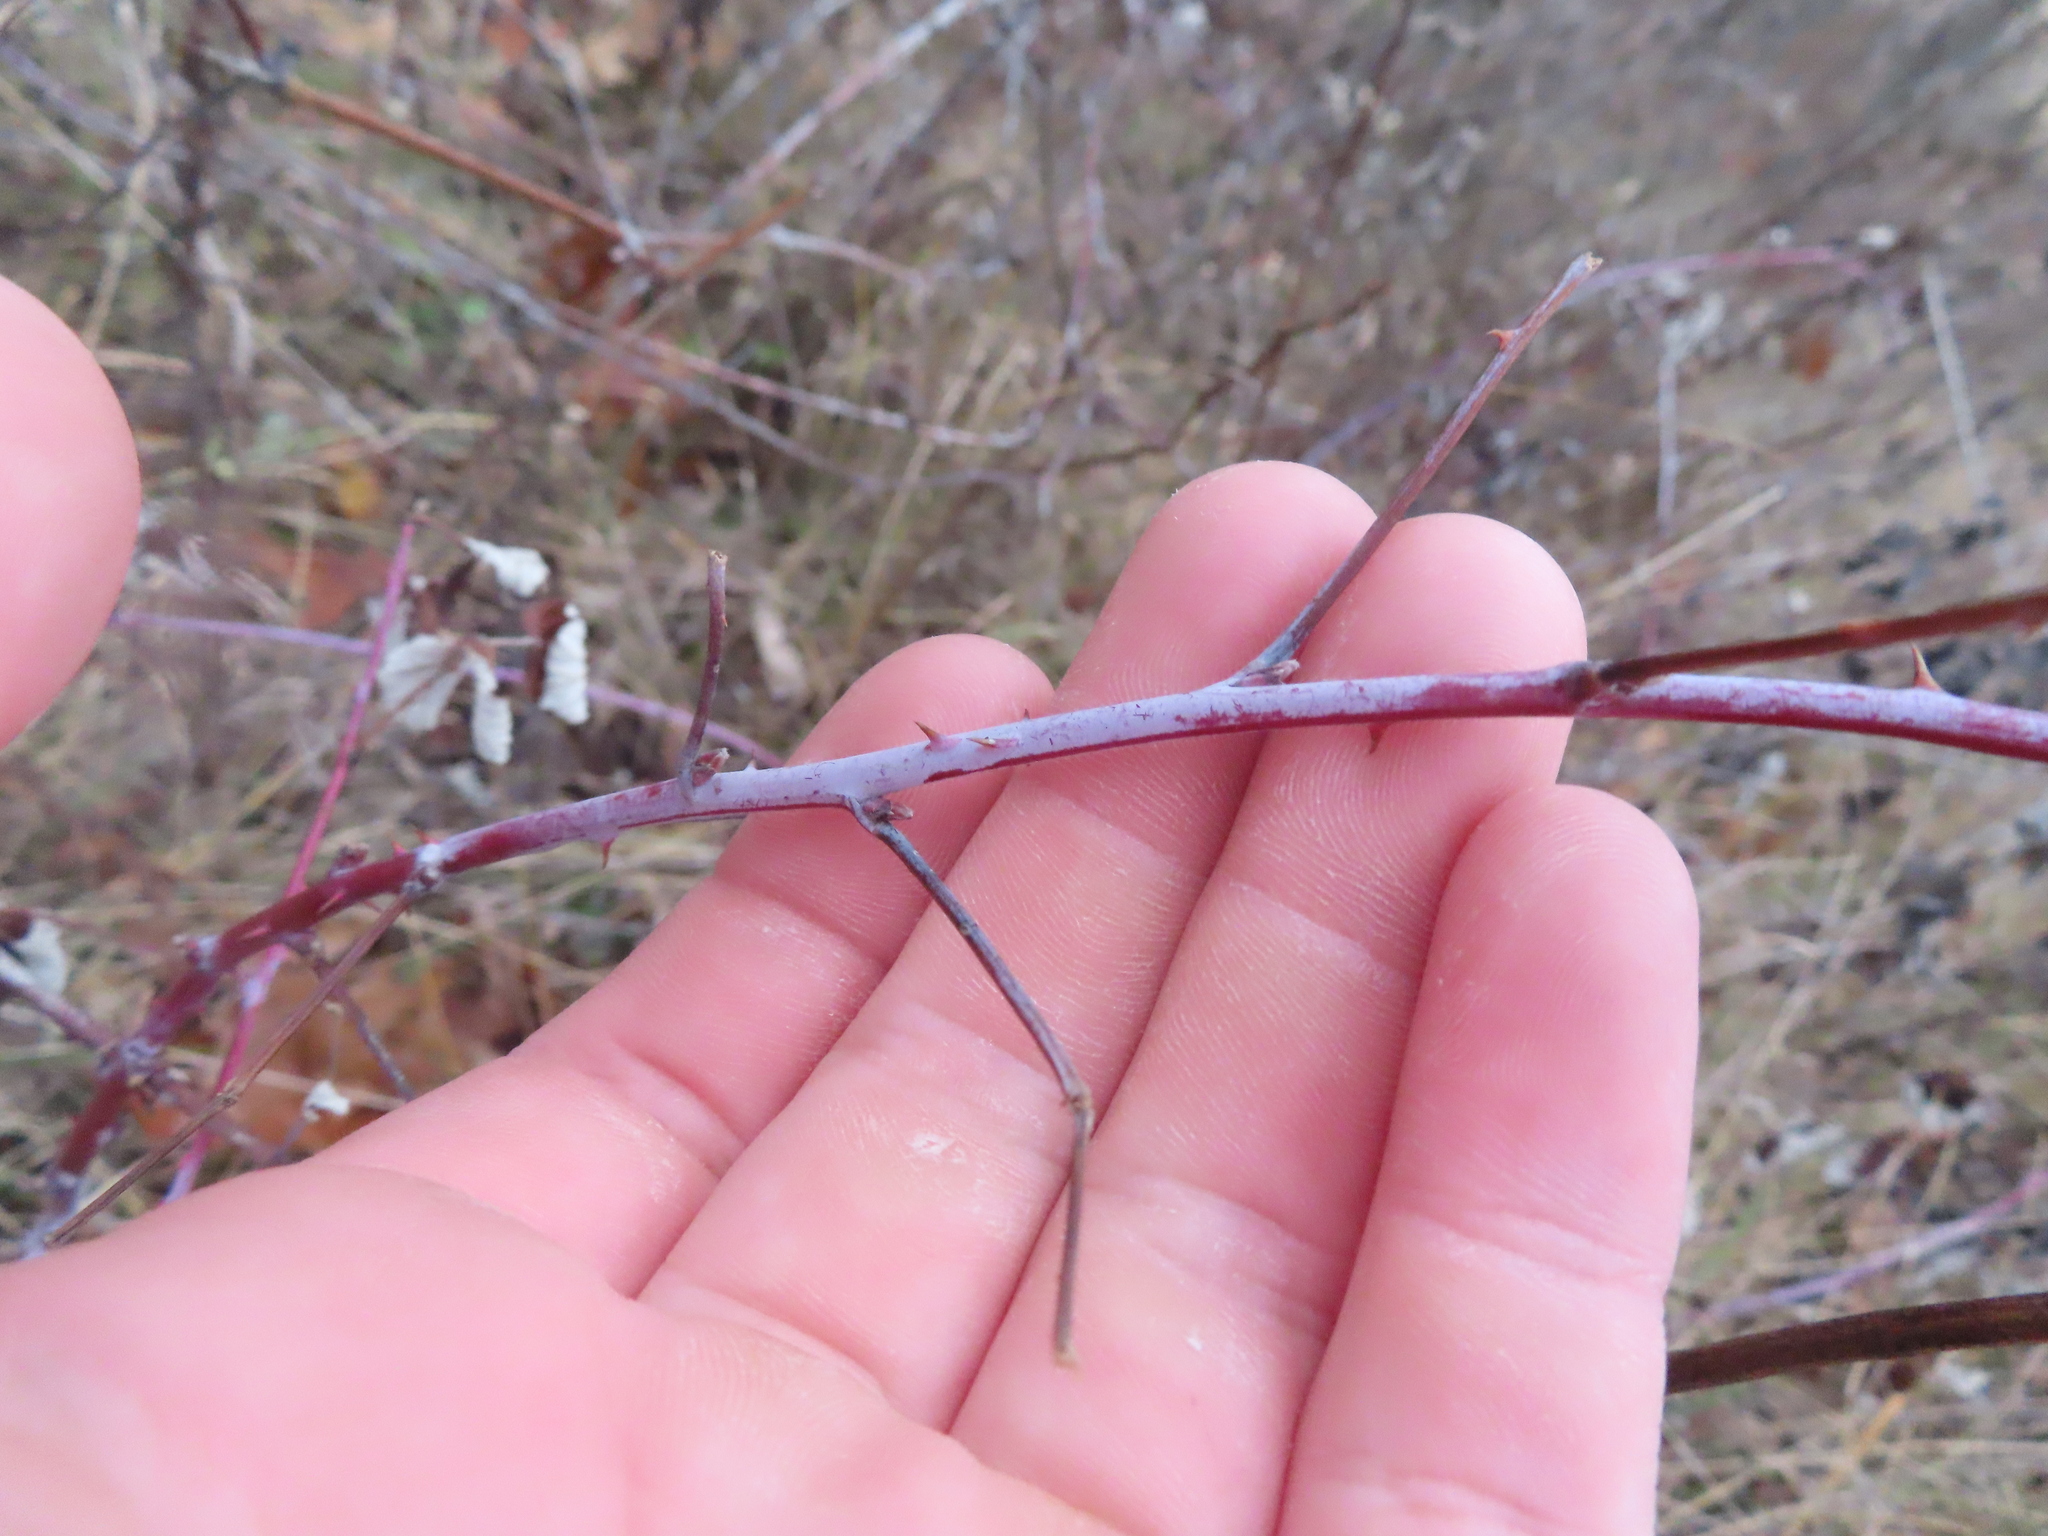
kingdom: Plantae
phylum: Tracheophyta
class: Magnoliopsida
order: Rosales
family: Rosaceae
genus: Rubus
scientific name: Rubus occidentalis
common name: Black raspberry
